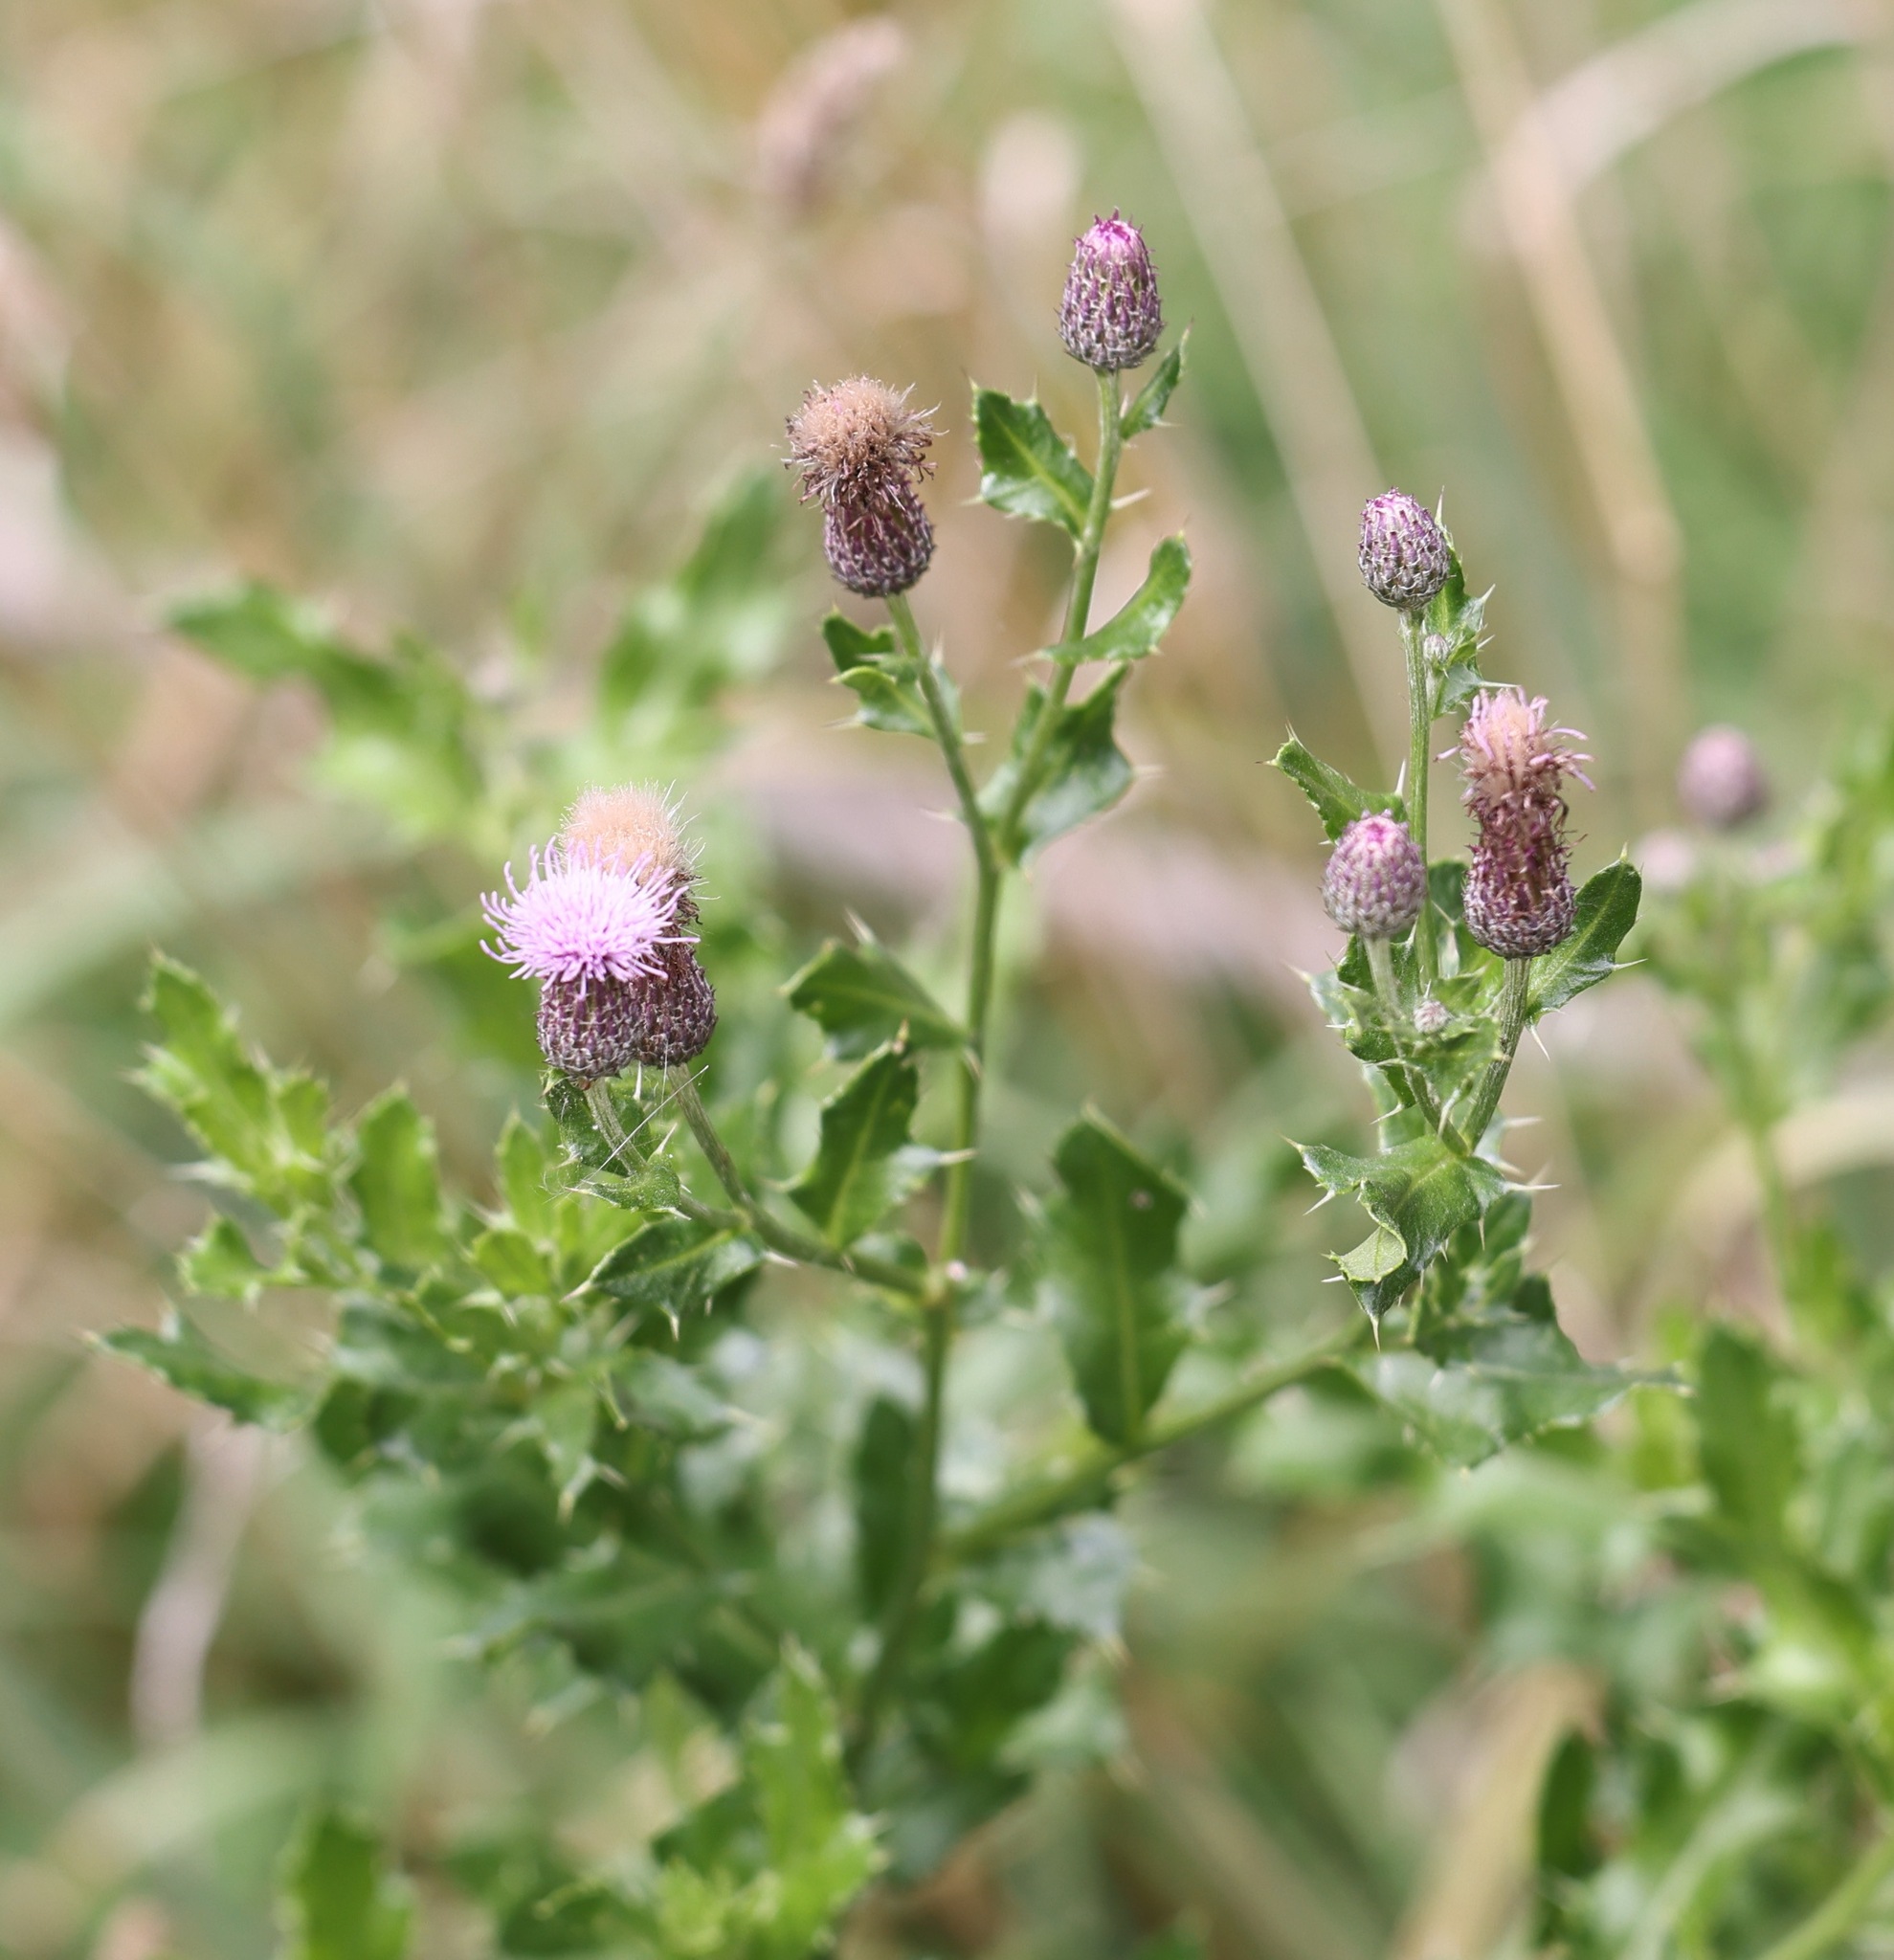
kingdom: Plantae
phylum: Tracheophyta
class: Magnoliopsida
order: Asterales
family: Asteraceae
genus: Cirsium
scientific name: Cirsium arvense
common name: Creeping thistle
